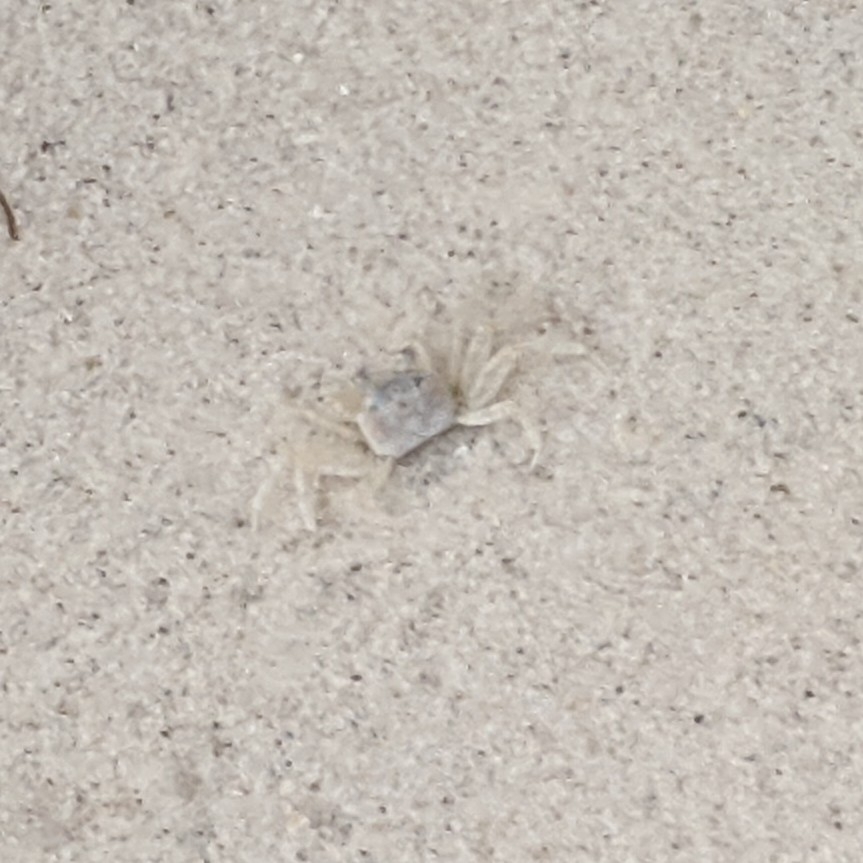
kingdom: Animalia
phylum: Arthropoda
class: Malacostraca
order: Decapoda
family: Ocypodidae
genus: Ocypode
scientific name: Ocypode quadrata
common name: Ghost crab
